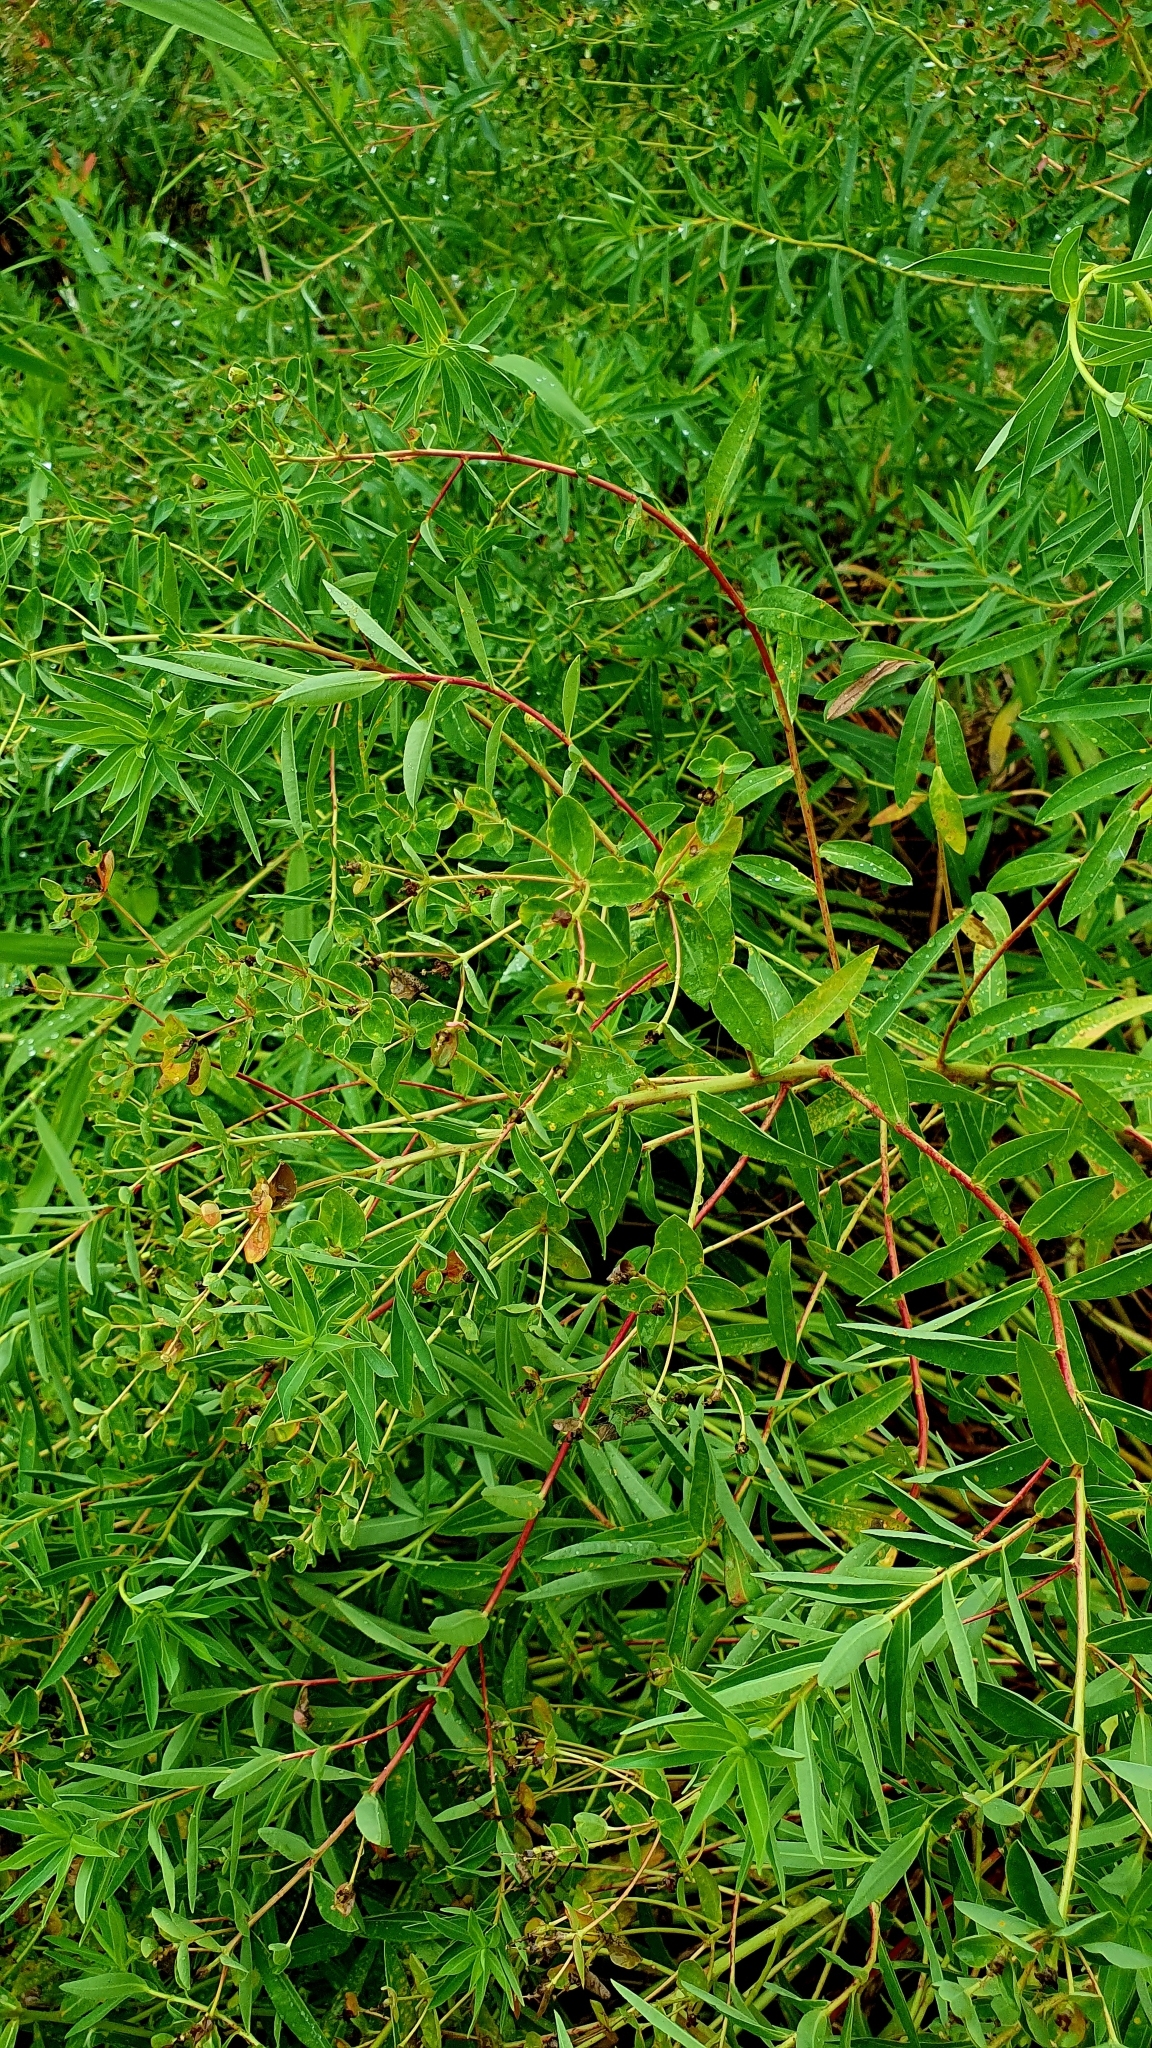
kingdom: Plantae
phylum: Tracheophyta
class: Magnoliopsida
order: Malpighiales
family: Euphorbiaceae
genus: Euphorbia
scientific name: Euphorbia palustris
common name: Marsh spurge
